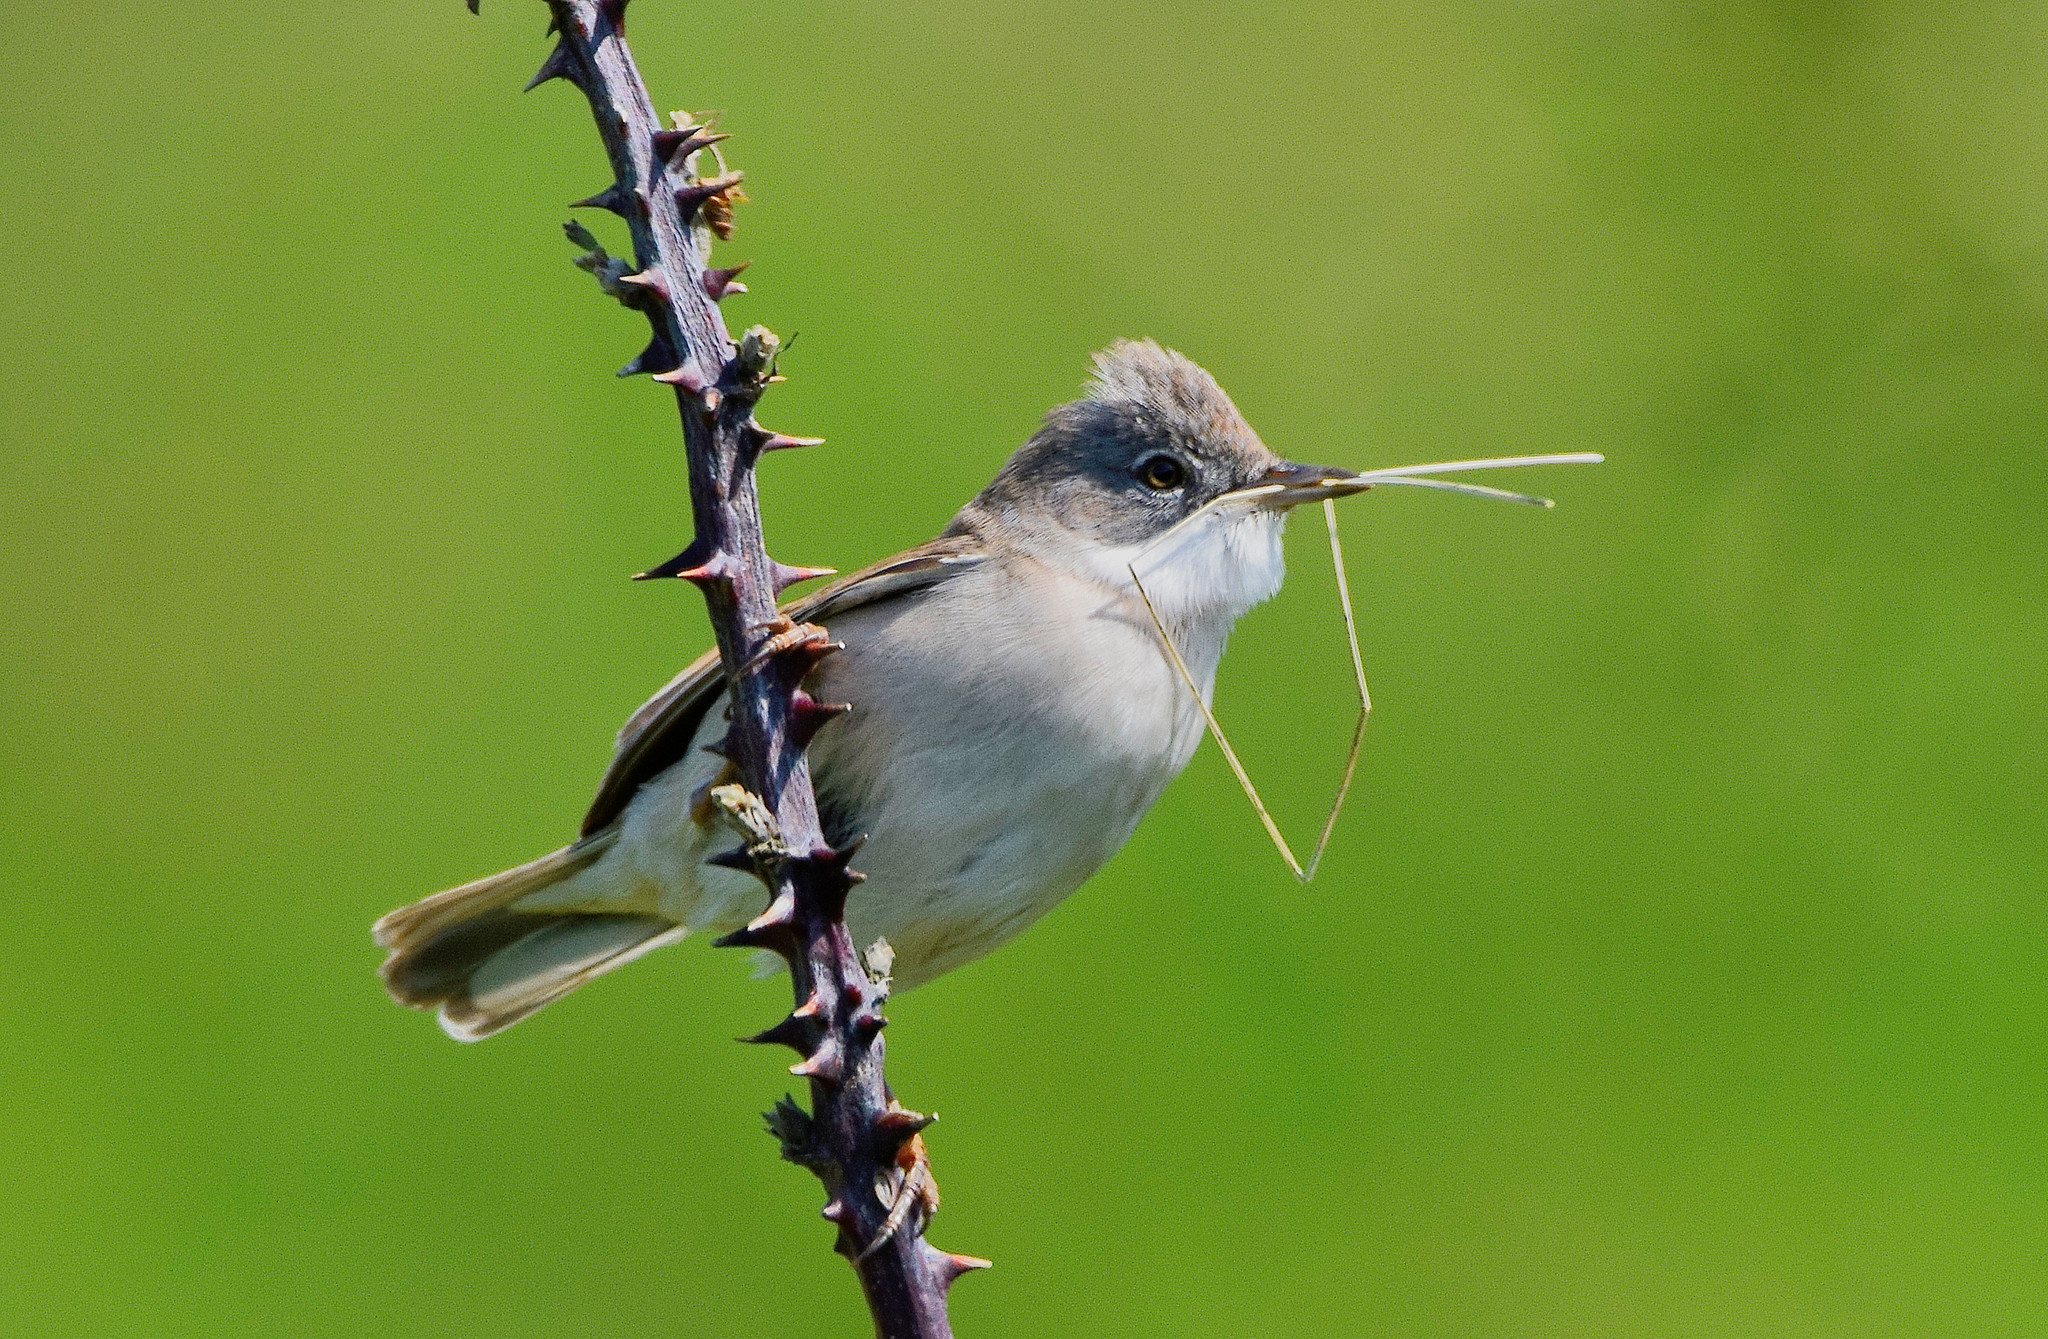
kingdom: Animalia
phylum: Chordata
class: Aves
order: Passeriformes
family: Sylviidae
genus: Sylvia
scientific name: Sylvia communis
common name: Common whitethroat
